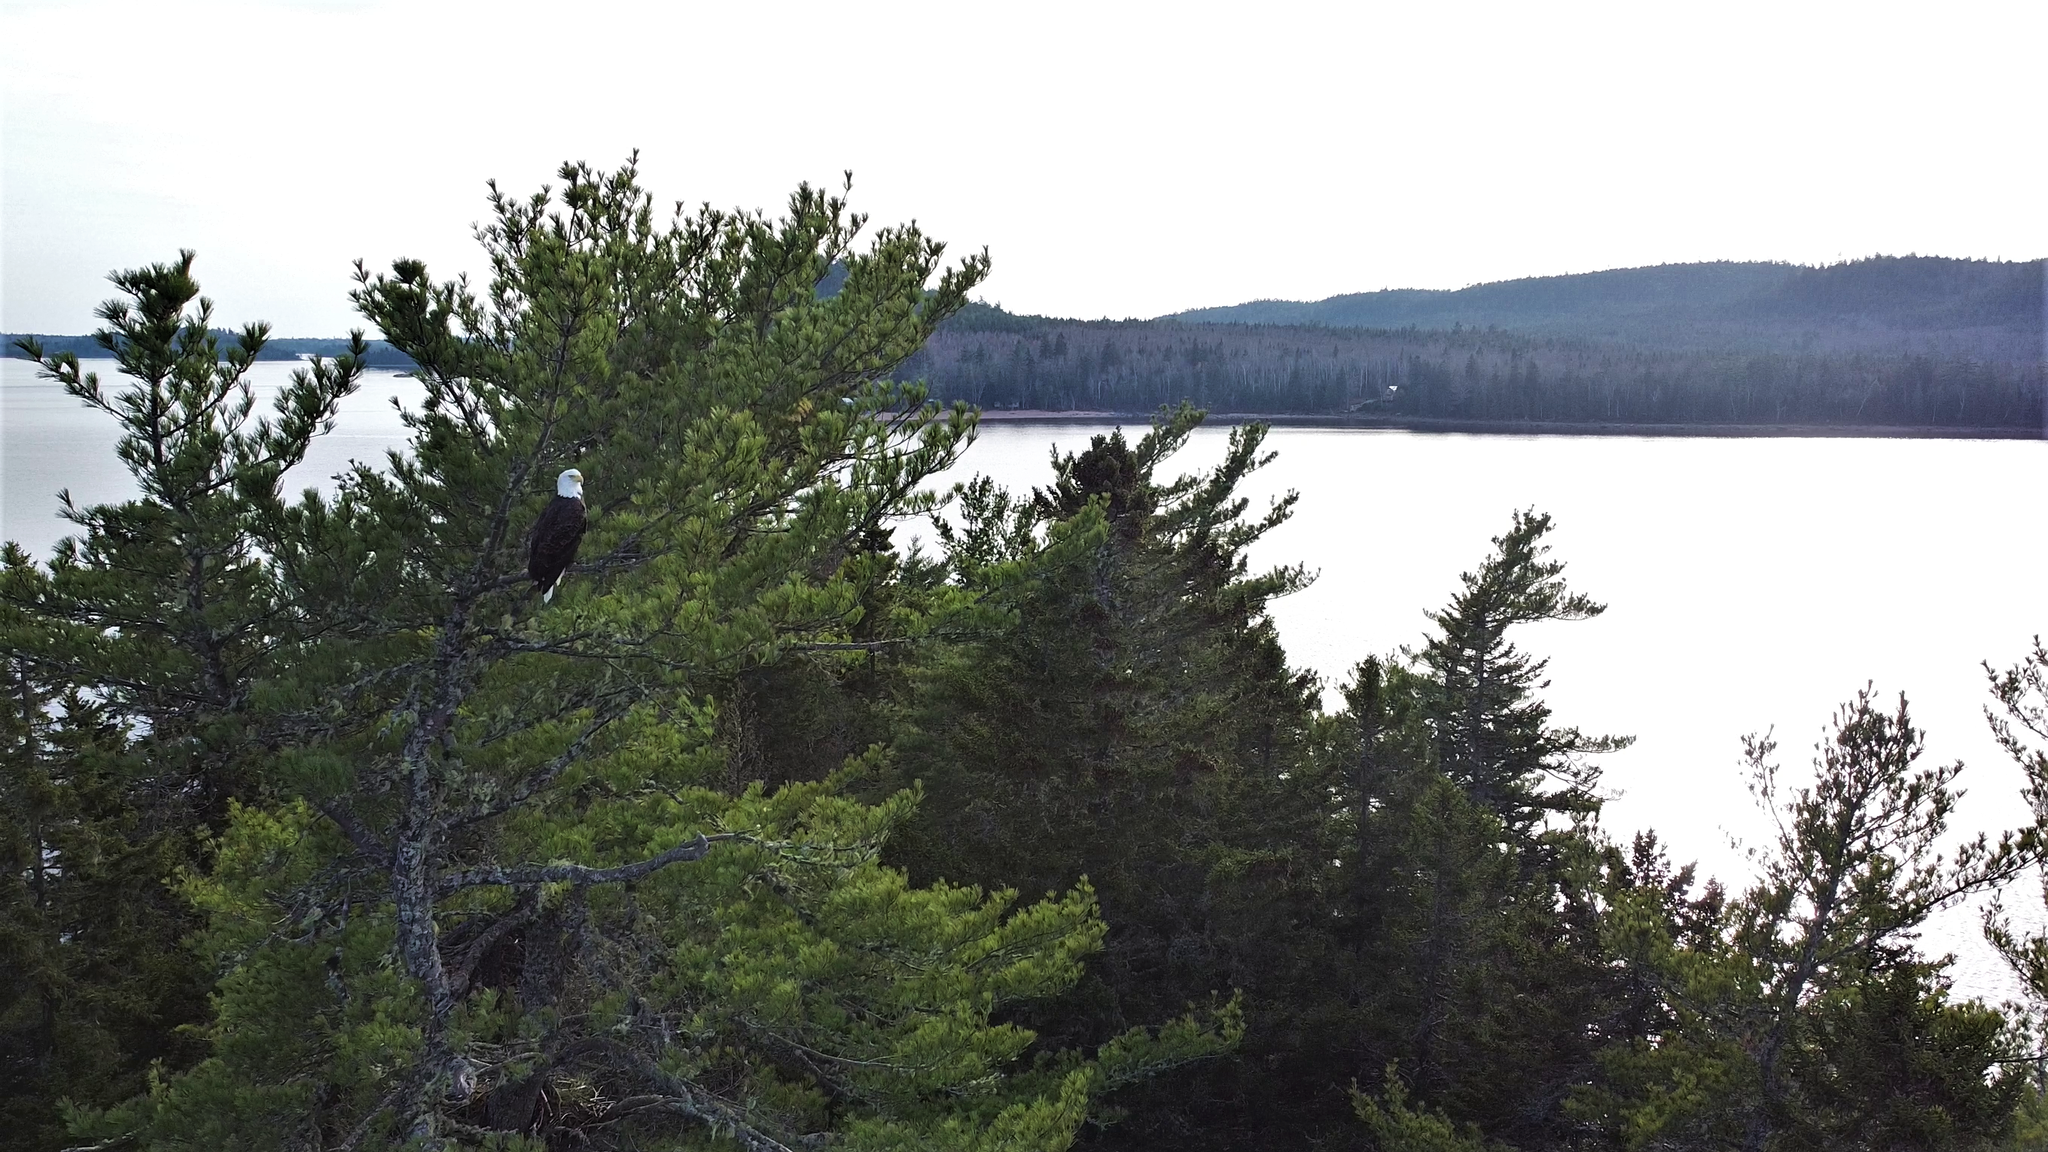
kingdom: Animalia
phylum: Chordata
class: Aves
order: Accipitriformes
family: Accipitridae
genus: Haliaeetus
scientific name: Haliaeetus leucocephalus
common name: Bald eagle
